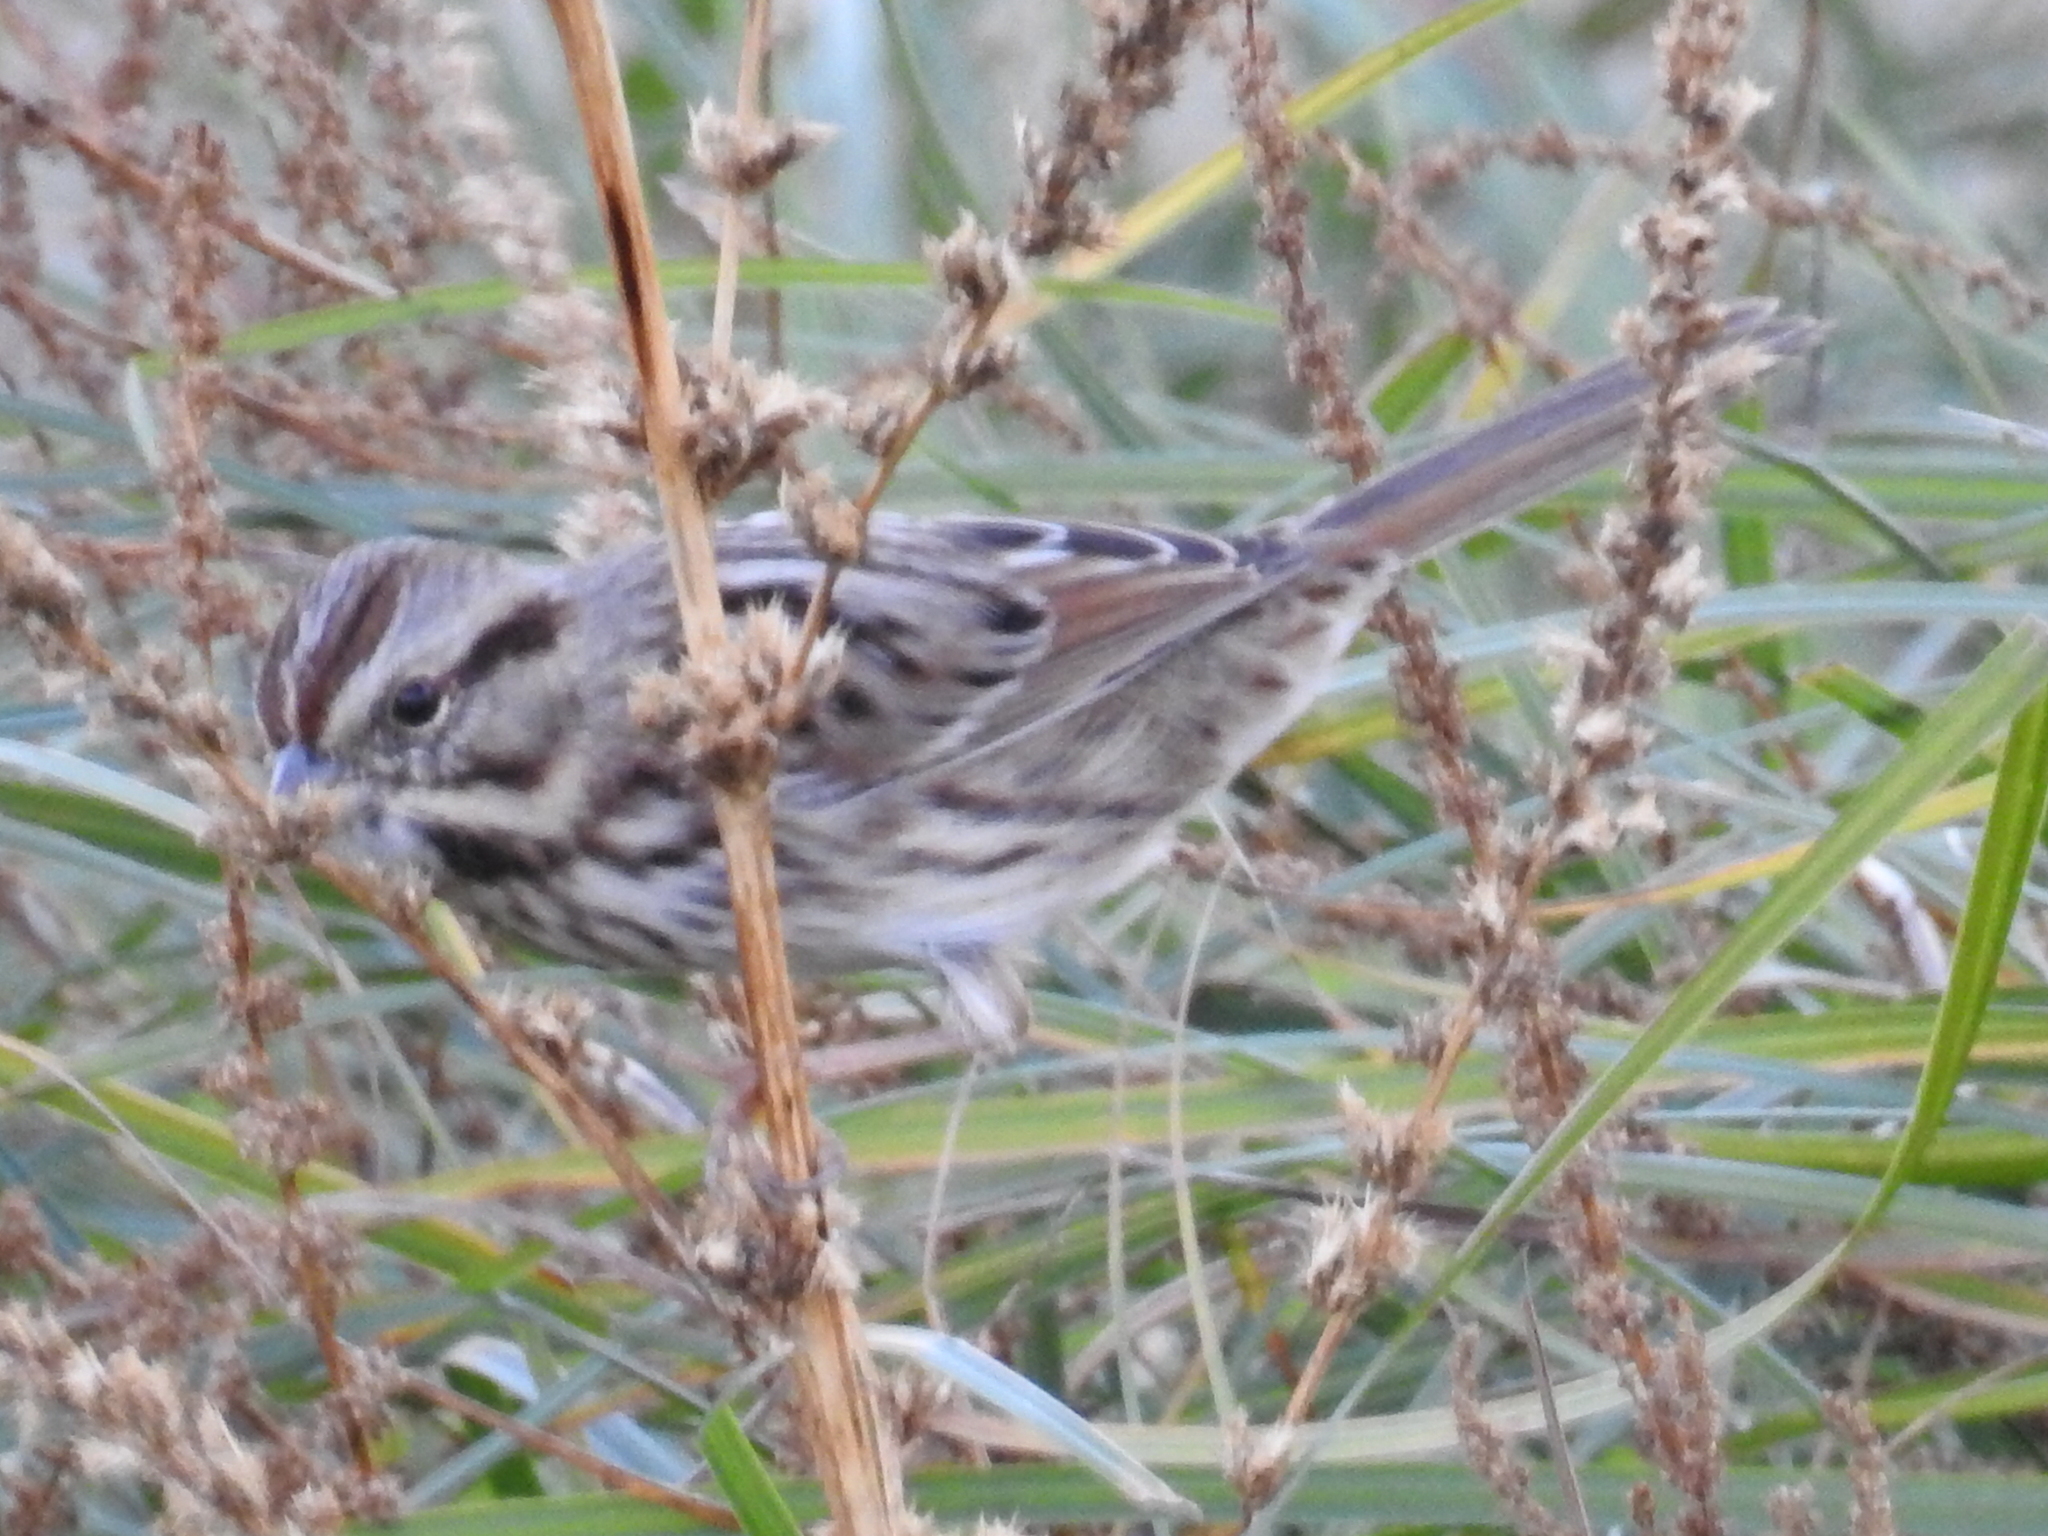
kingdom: Animalia
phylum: Chordata
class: Aves
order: Passeriformes
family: Passerellidae
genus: Melospiza
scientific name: Melospiza melodia
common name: Song sparrow
